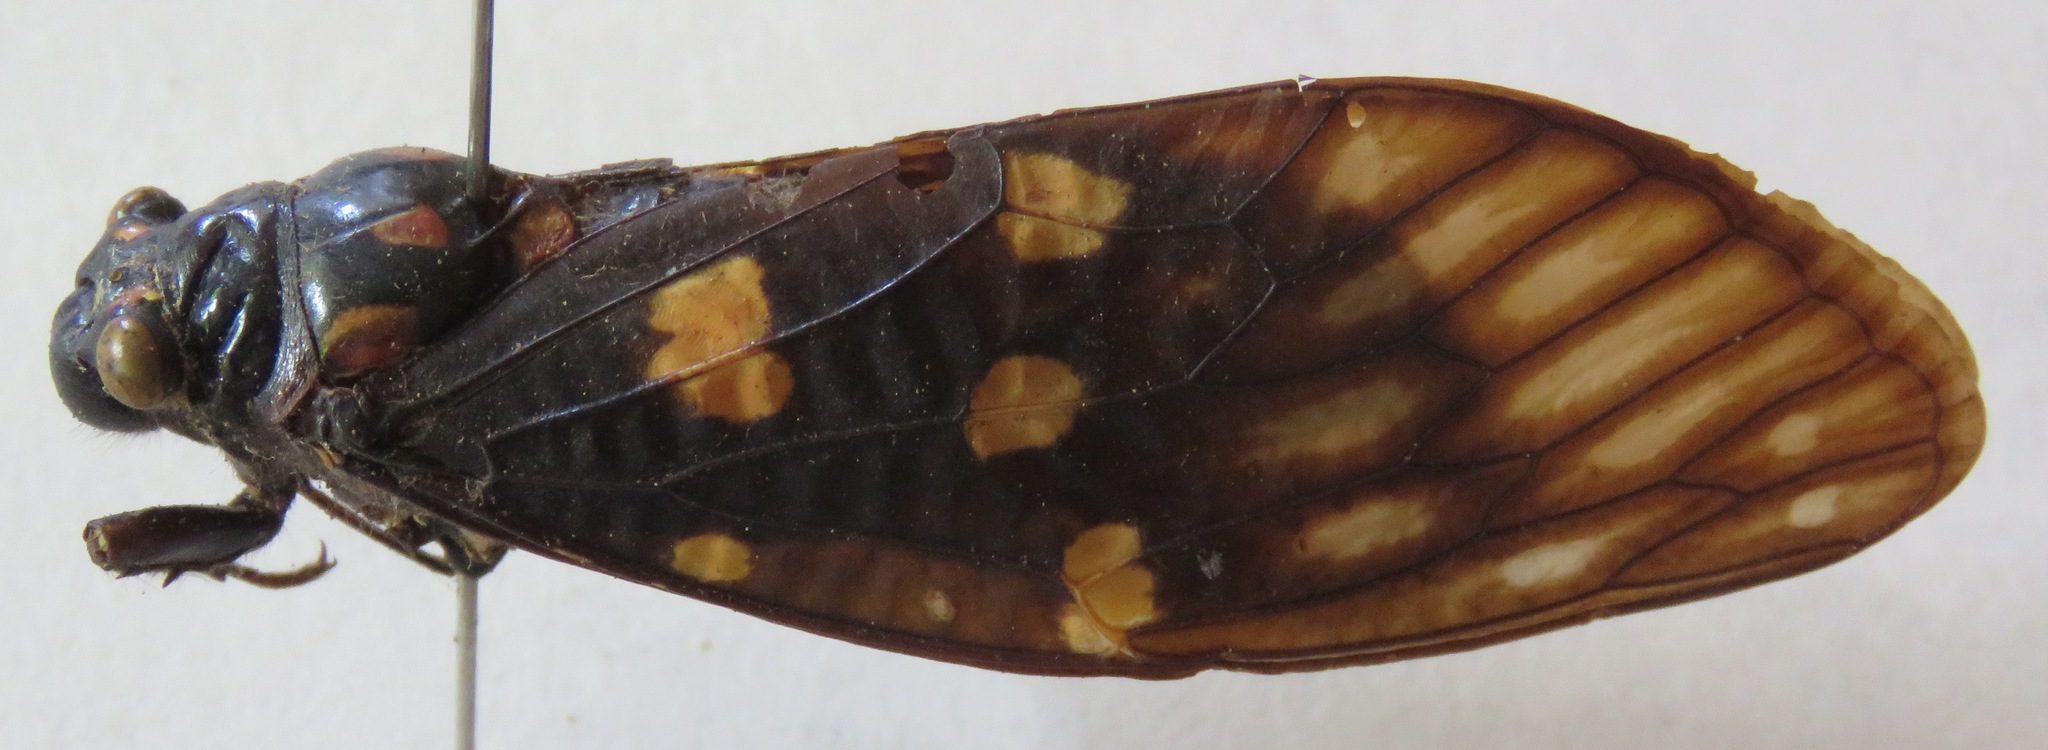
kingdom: Animalia
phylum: Arthropoda
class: Insecta
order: Hemiptera
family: Cicadidae
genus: Gaeana
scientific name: Gaeana maculata
